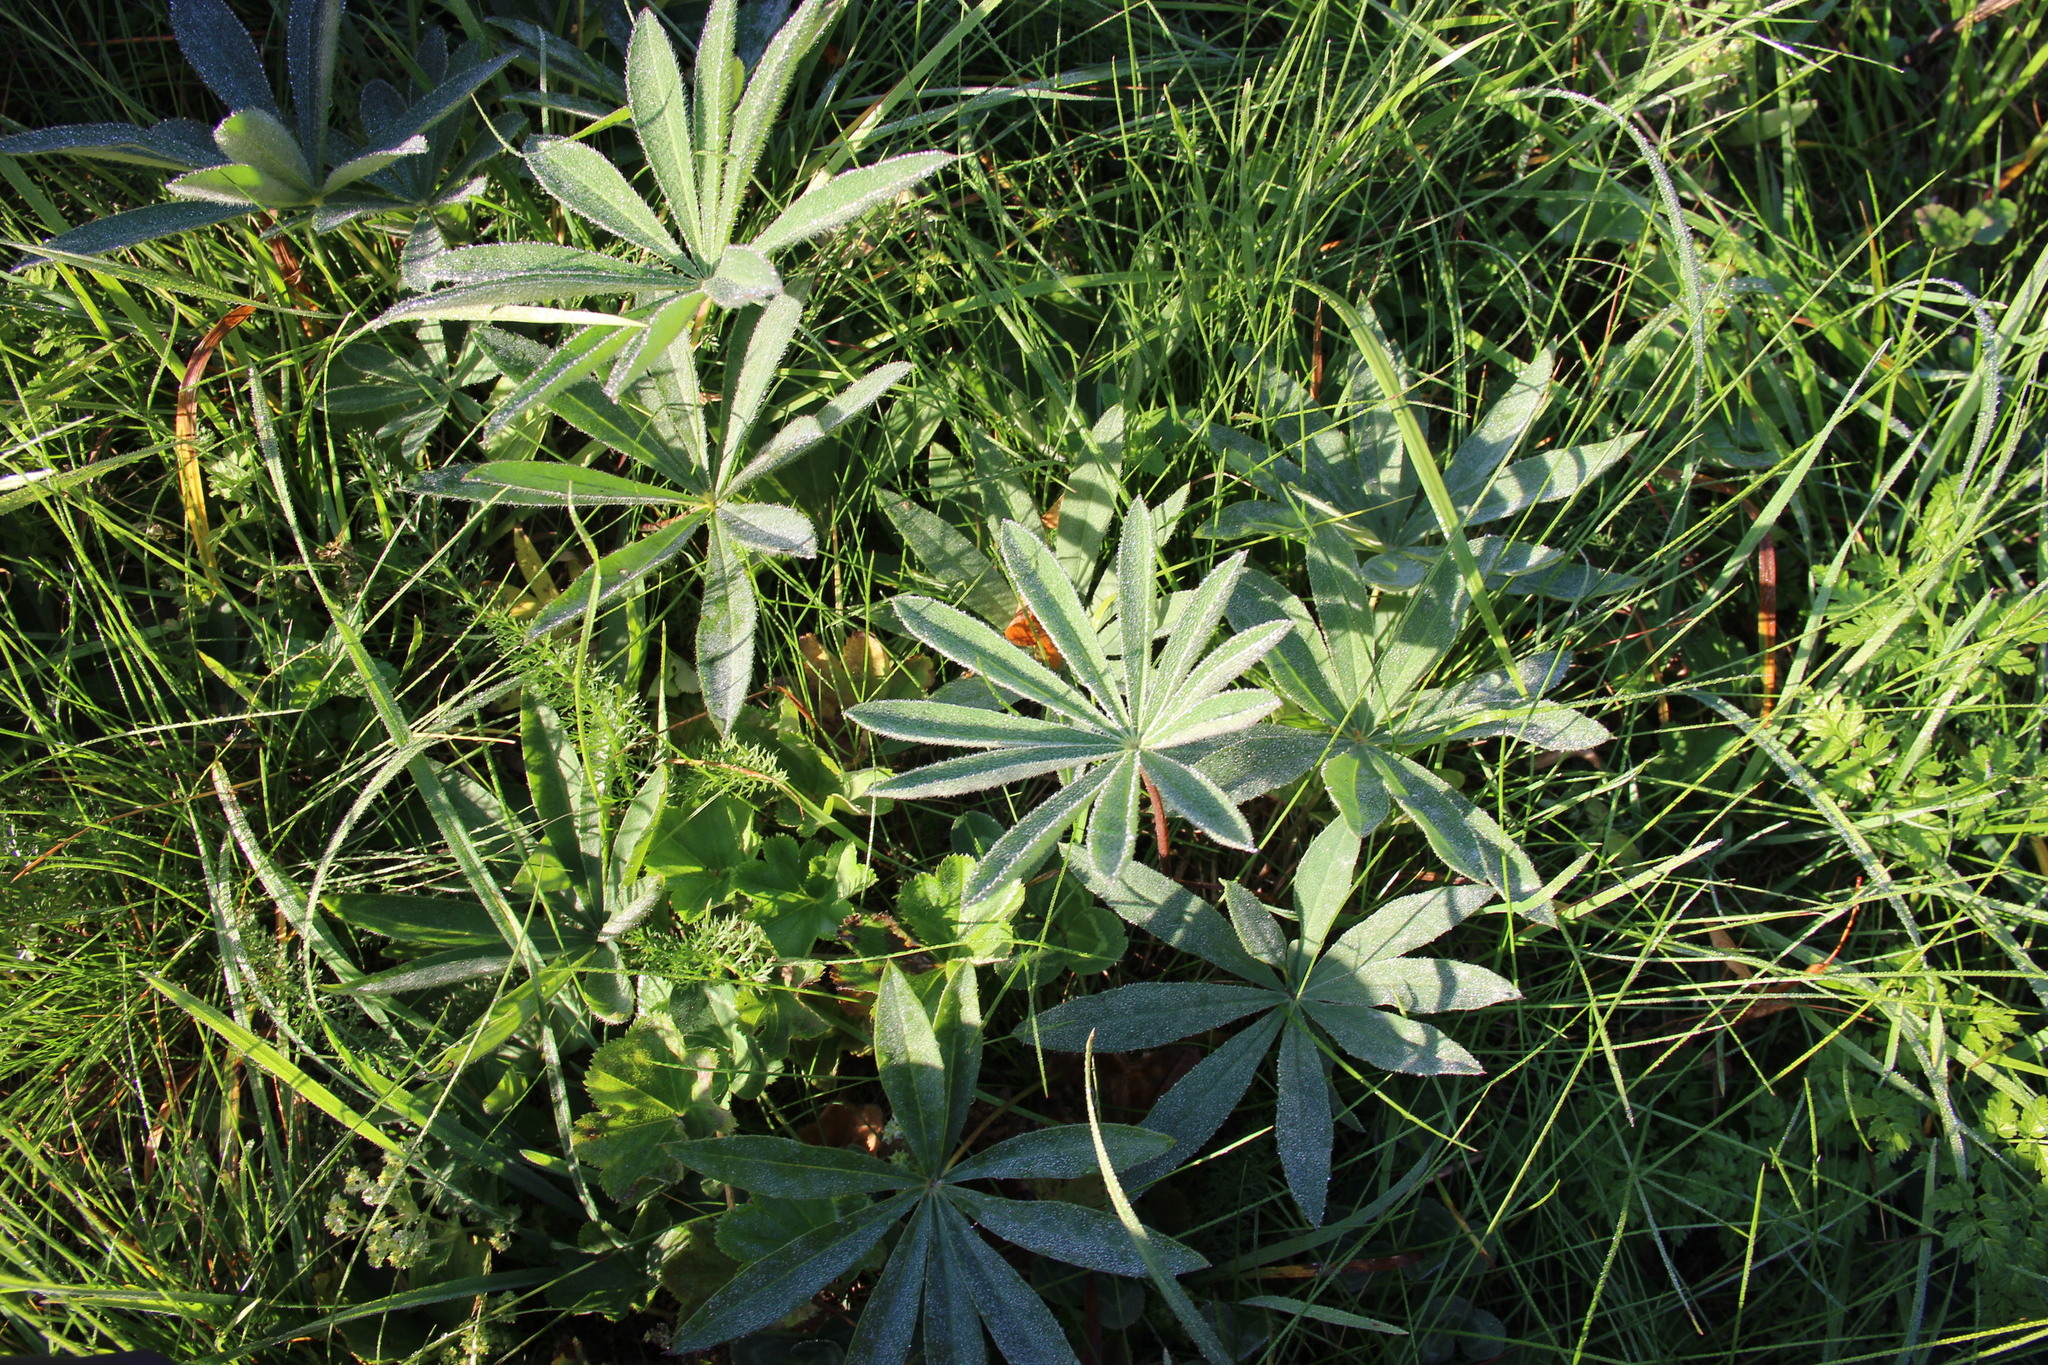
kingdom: Plantae
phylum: Tracheophyta
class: Magnoliopsida
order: Fabales
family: Fabaceae
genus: Lupinus
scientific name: Lupinus polyphyllus
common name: Garden lupin
